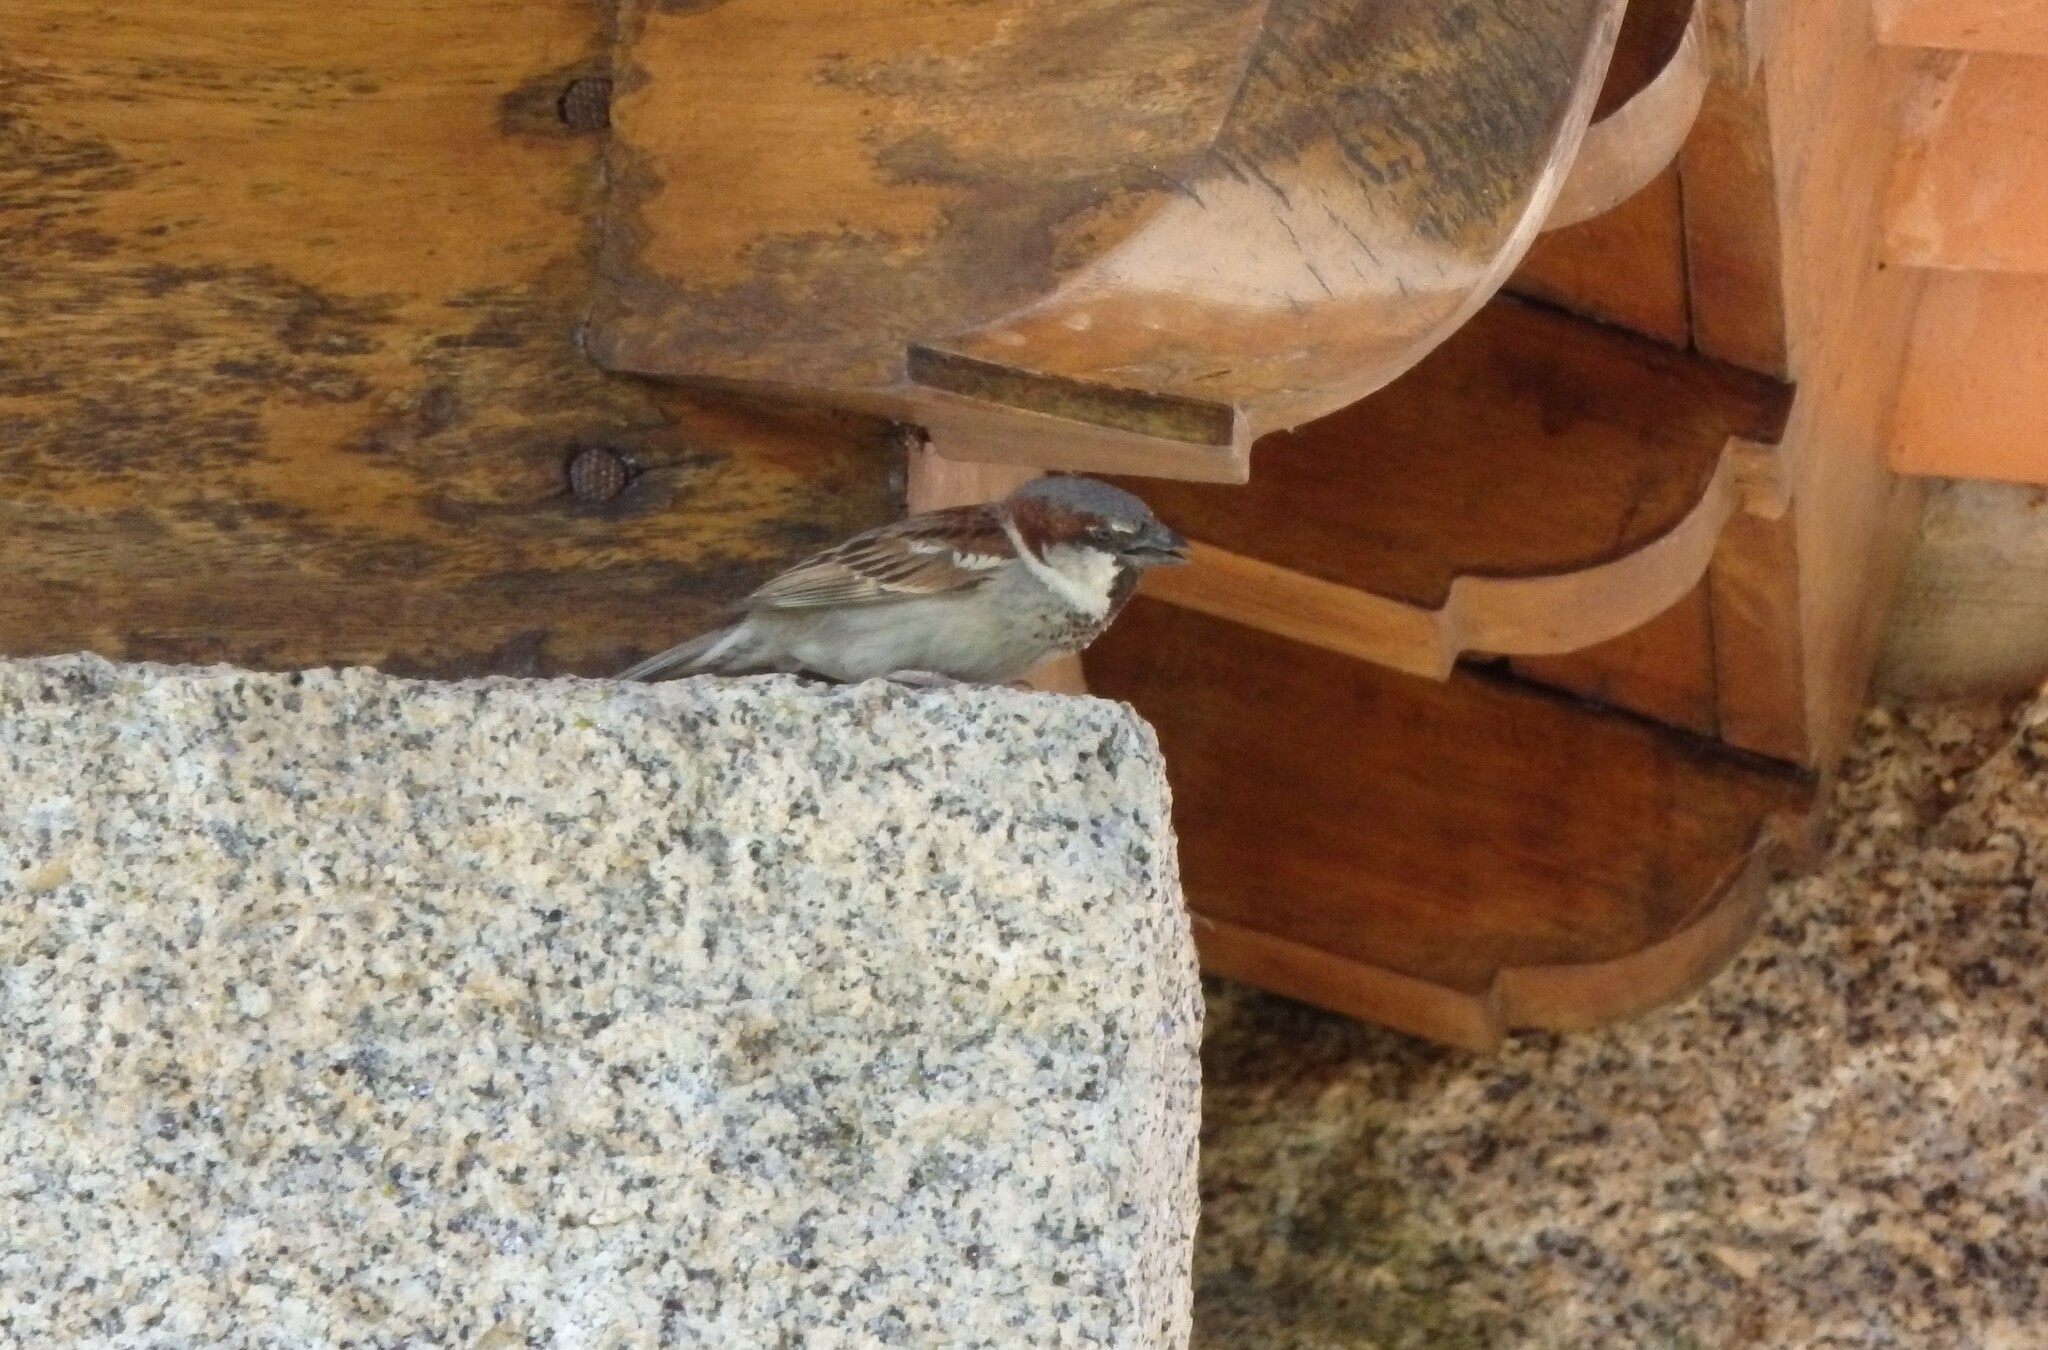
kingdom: Animalia
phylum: Chordata
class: Aves
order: Passeriformes
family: Passeridae
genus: Passer
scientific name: Passer domesticus
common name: House sparrow
